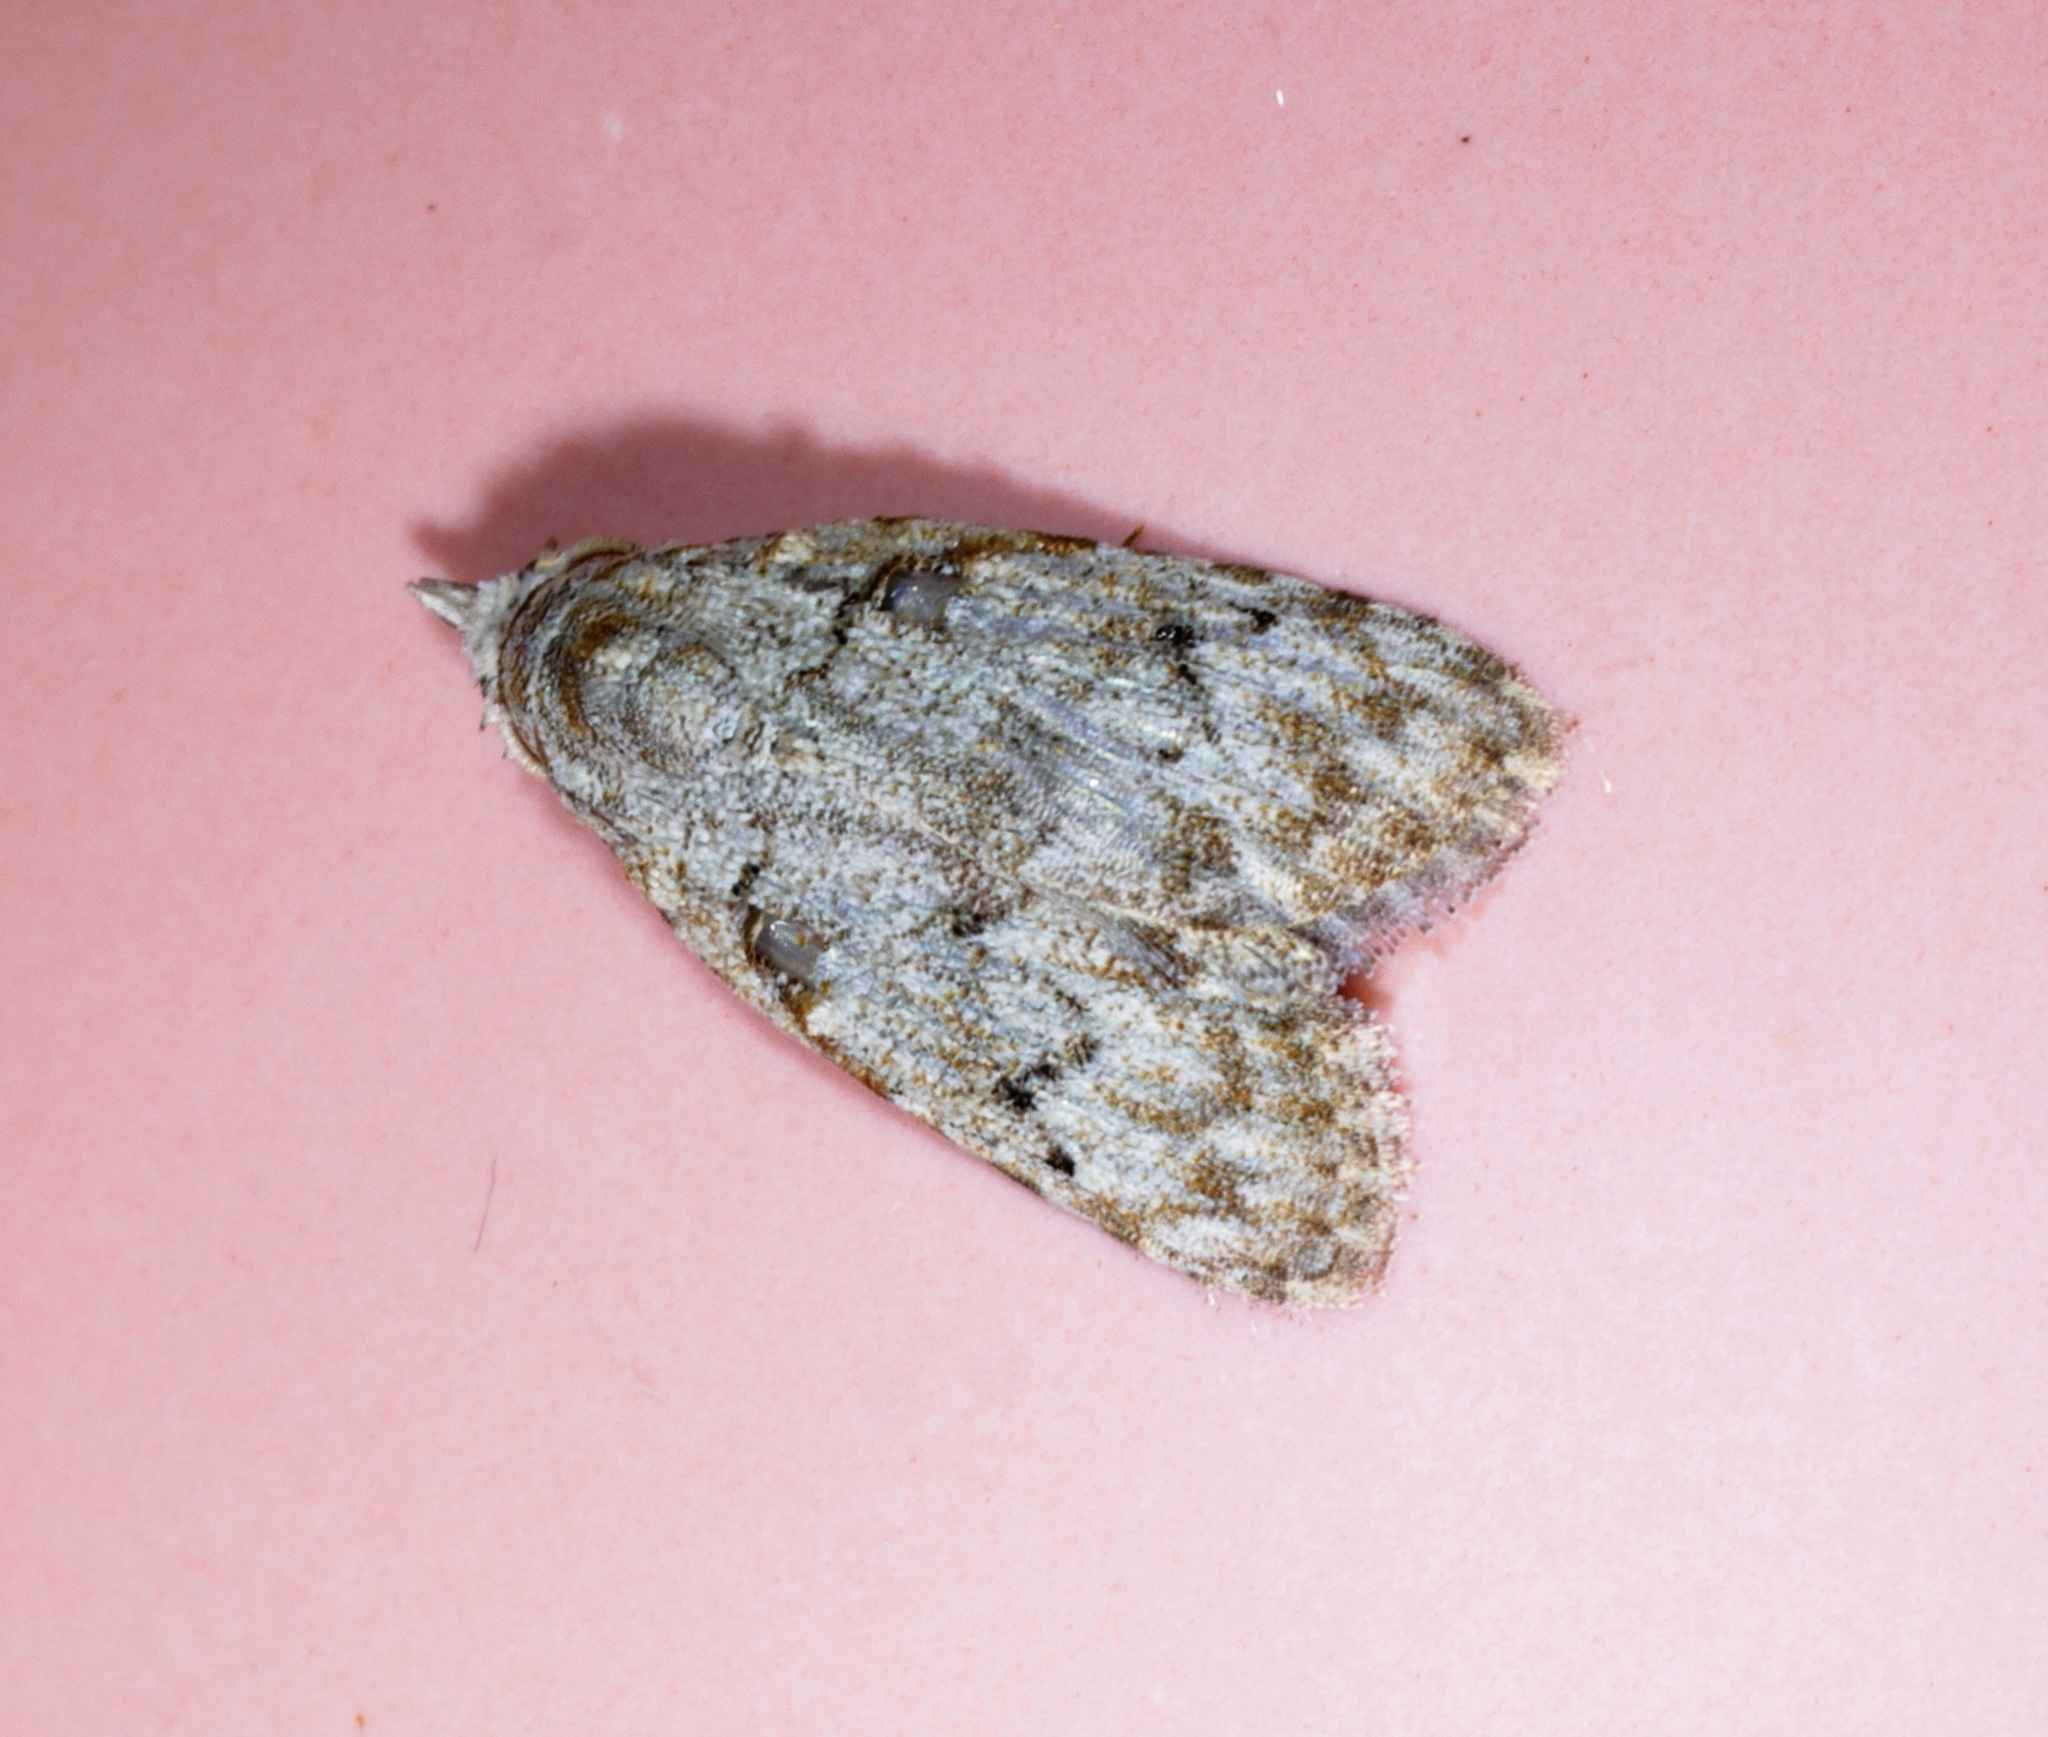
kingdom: Animalia
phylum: Arthropoda
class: Insecta
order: Lepidoptera
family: Nolidae
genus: Nola
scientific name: Nola thyrophora
